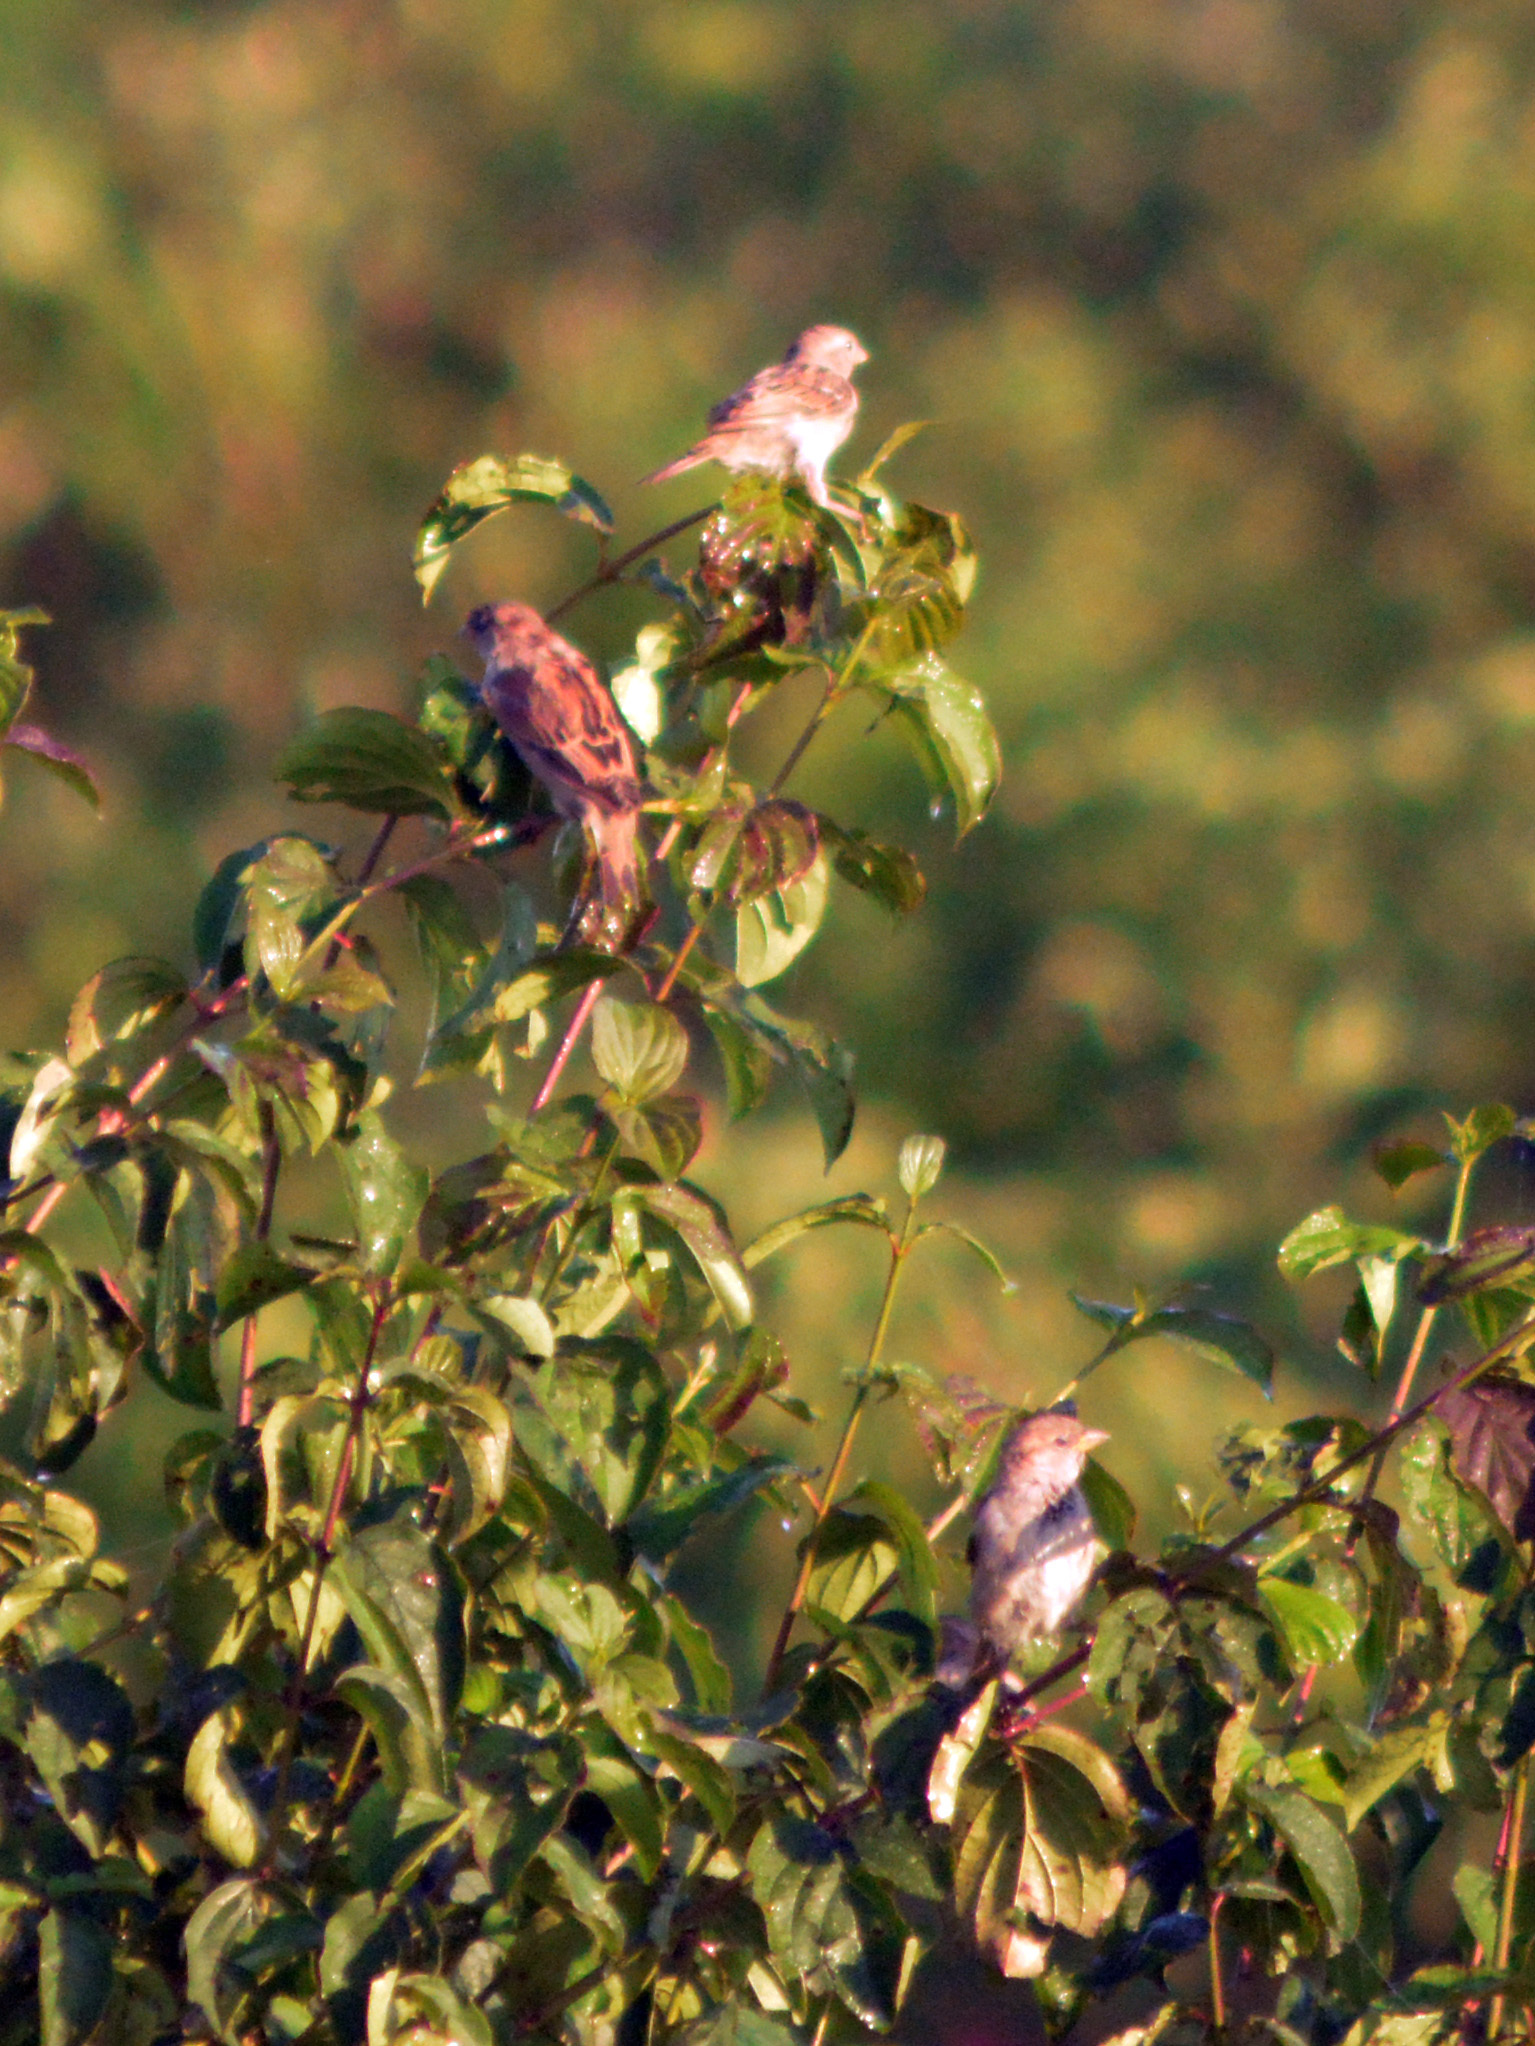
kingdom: Animalia
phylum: Chordata
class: Aves
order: Passeriformes
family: Passeridae
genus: Passer
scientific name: Passer domesticus
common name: House sparrow
